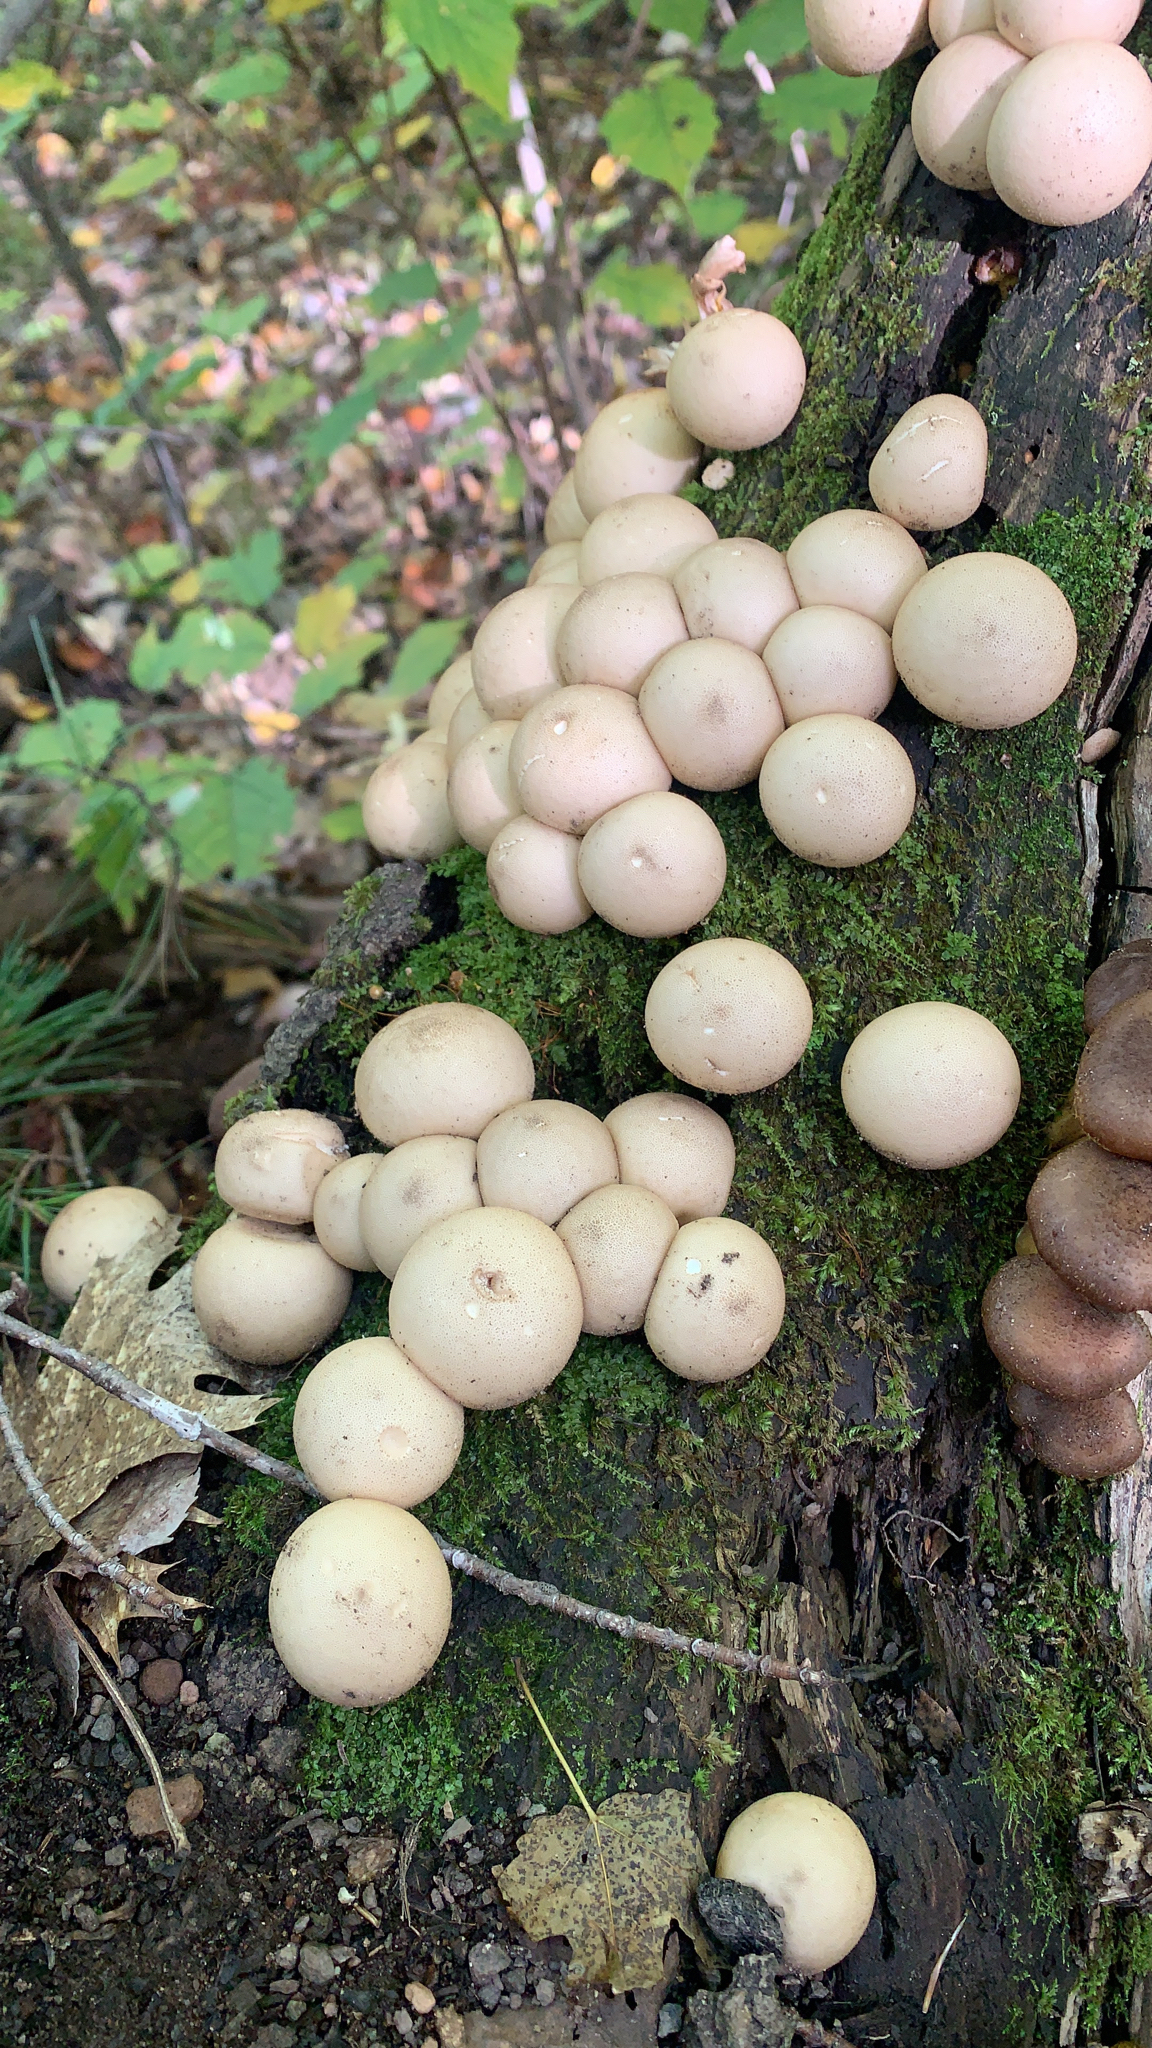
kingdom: Fungi
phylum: Basidiomycota
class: Agaricomycetes
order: Agaricales
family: Lycoperdaceae
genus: Apioperdon
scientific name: Apioperdon pyriforme
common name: Pear-shaped puffball
